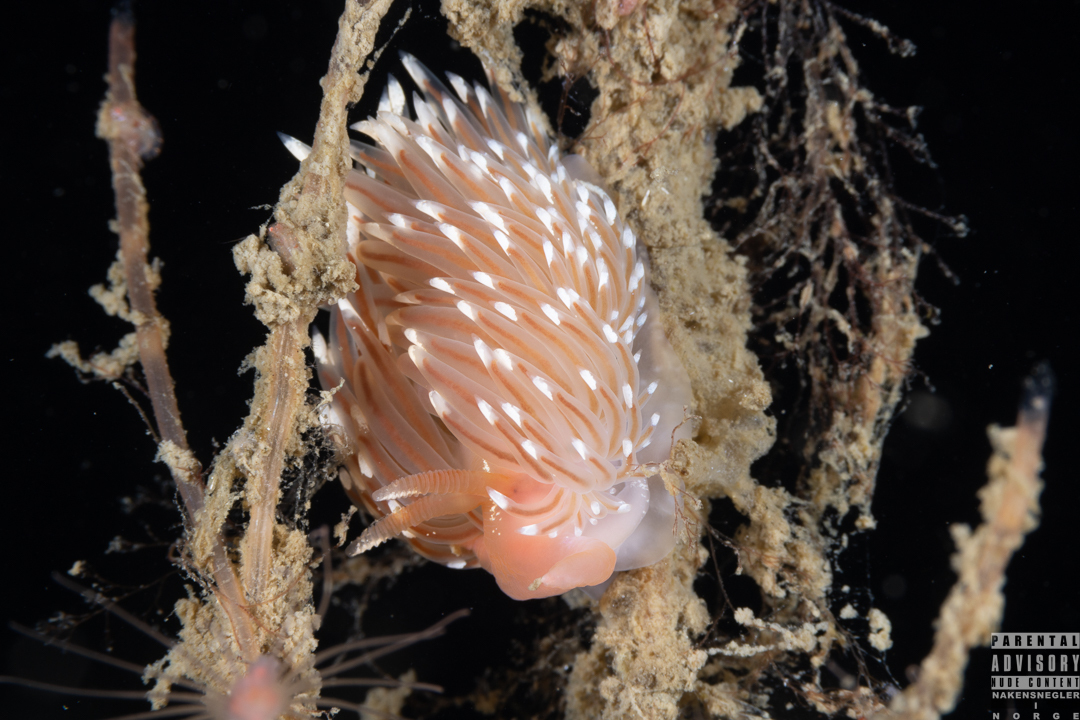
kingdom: Animalia
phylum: Mollusca
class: Gastropoda
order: Nudibranchia
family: Facelinidae
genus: Facelina
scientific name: Facelina bostoniensis
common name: Boston facelina
